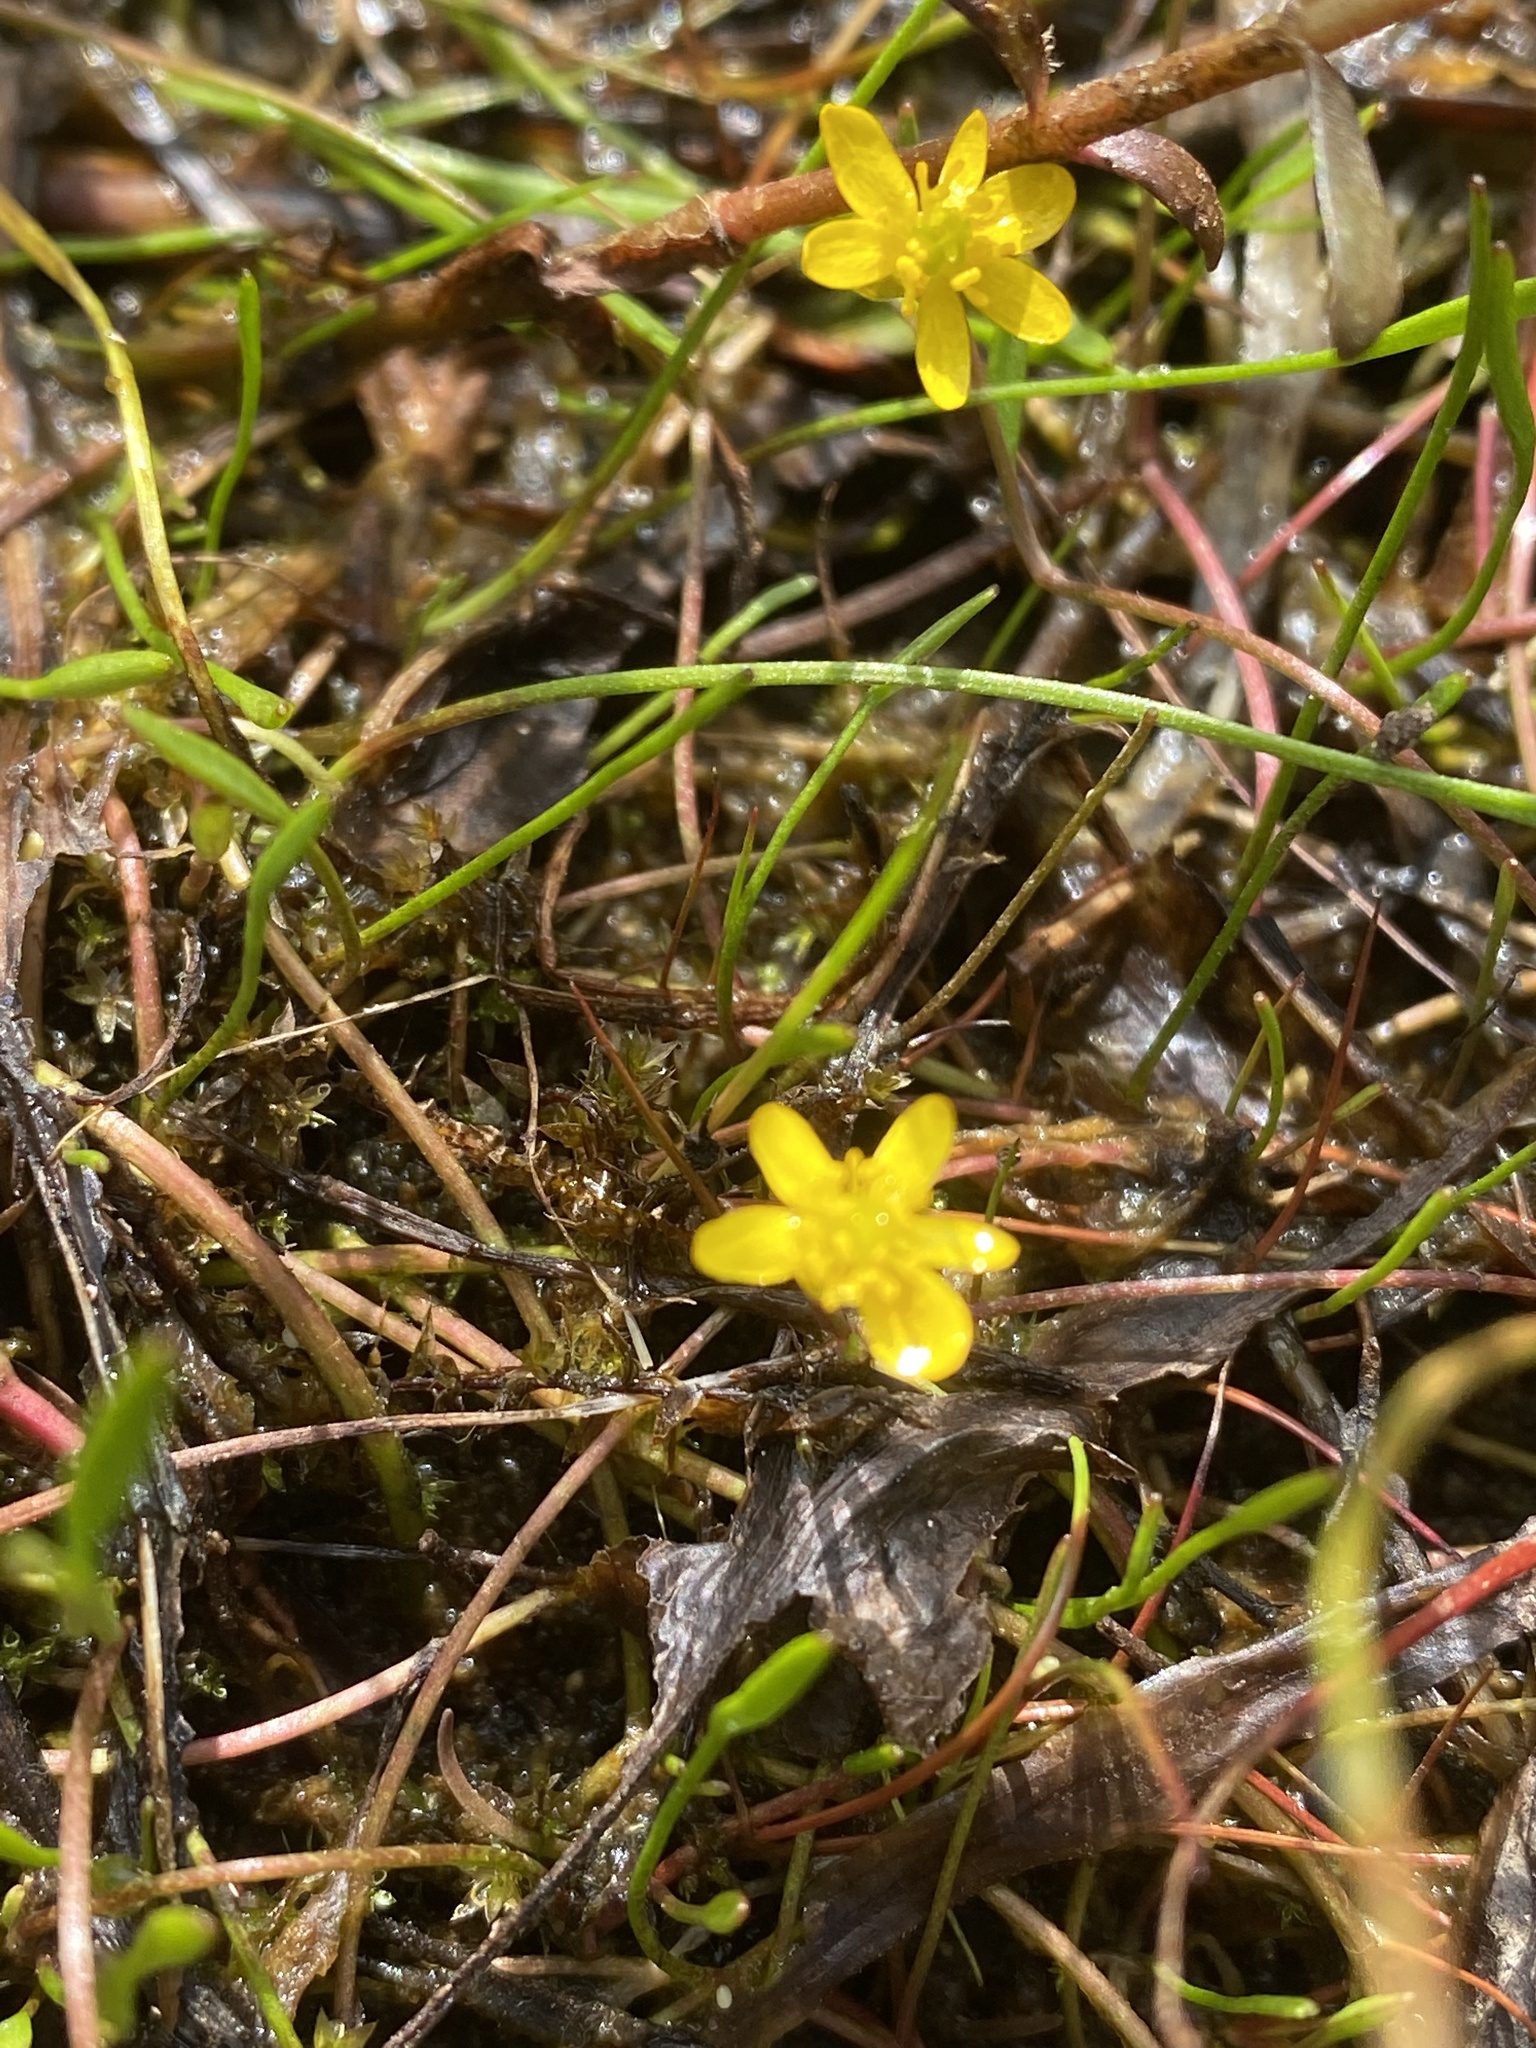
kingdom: Plantae
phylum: Tracheophyta
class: Magnoliopsida
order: Ranunculales
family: Ranunculaceae
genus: Ranunculus
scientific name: Ranunculus reptans
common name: Creeping spearwort
